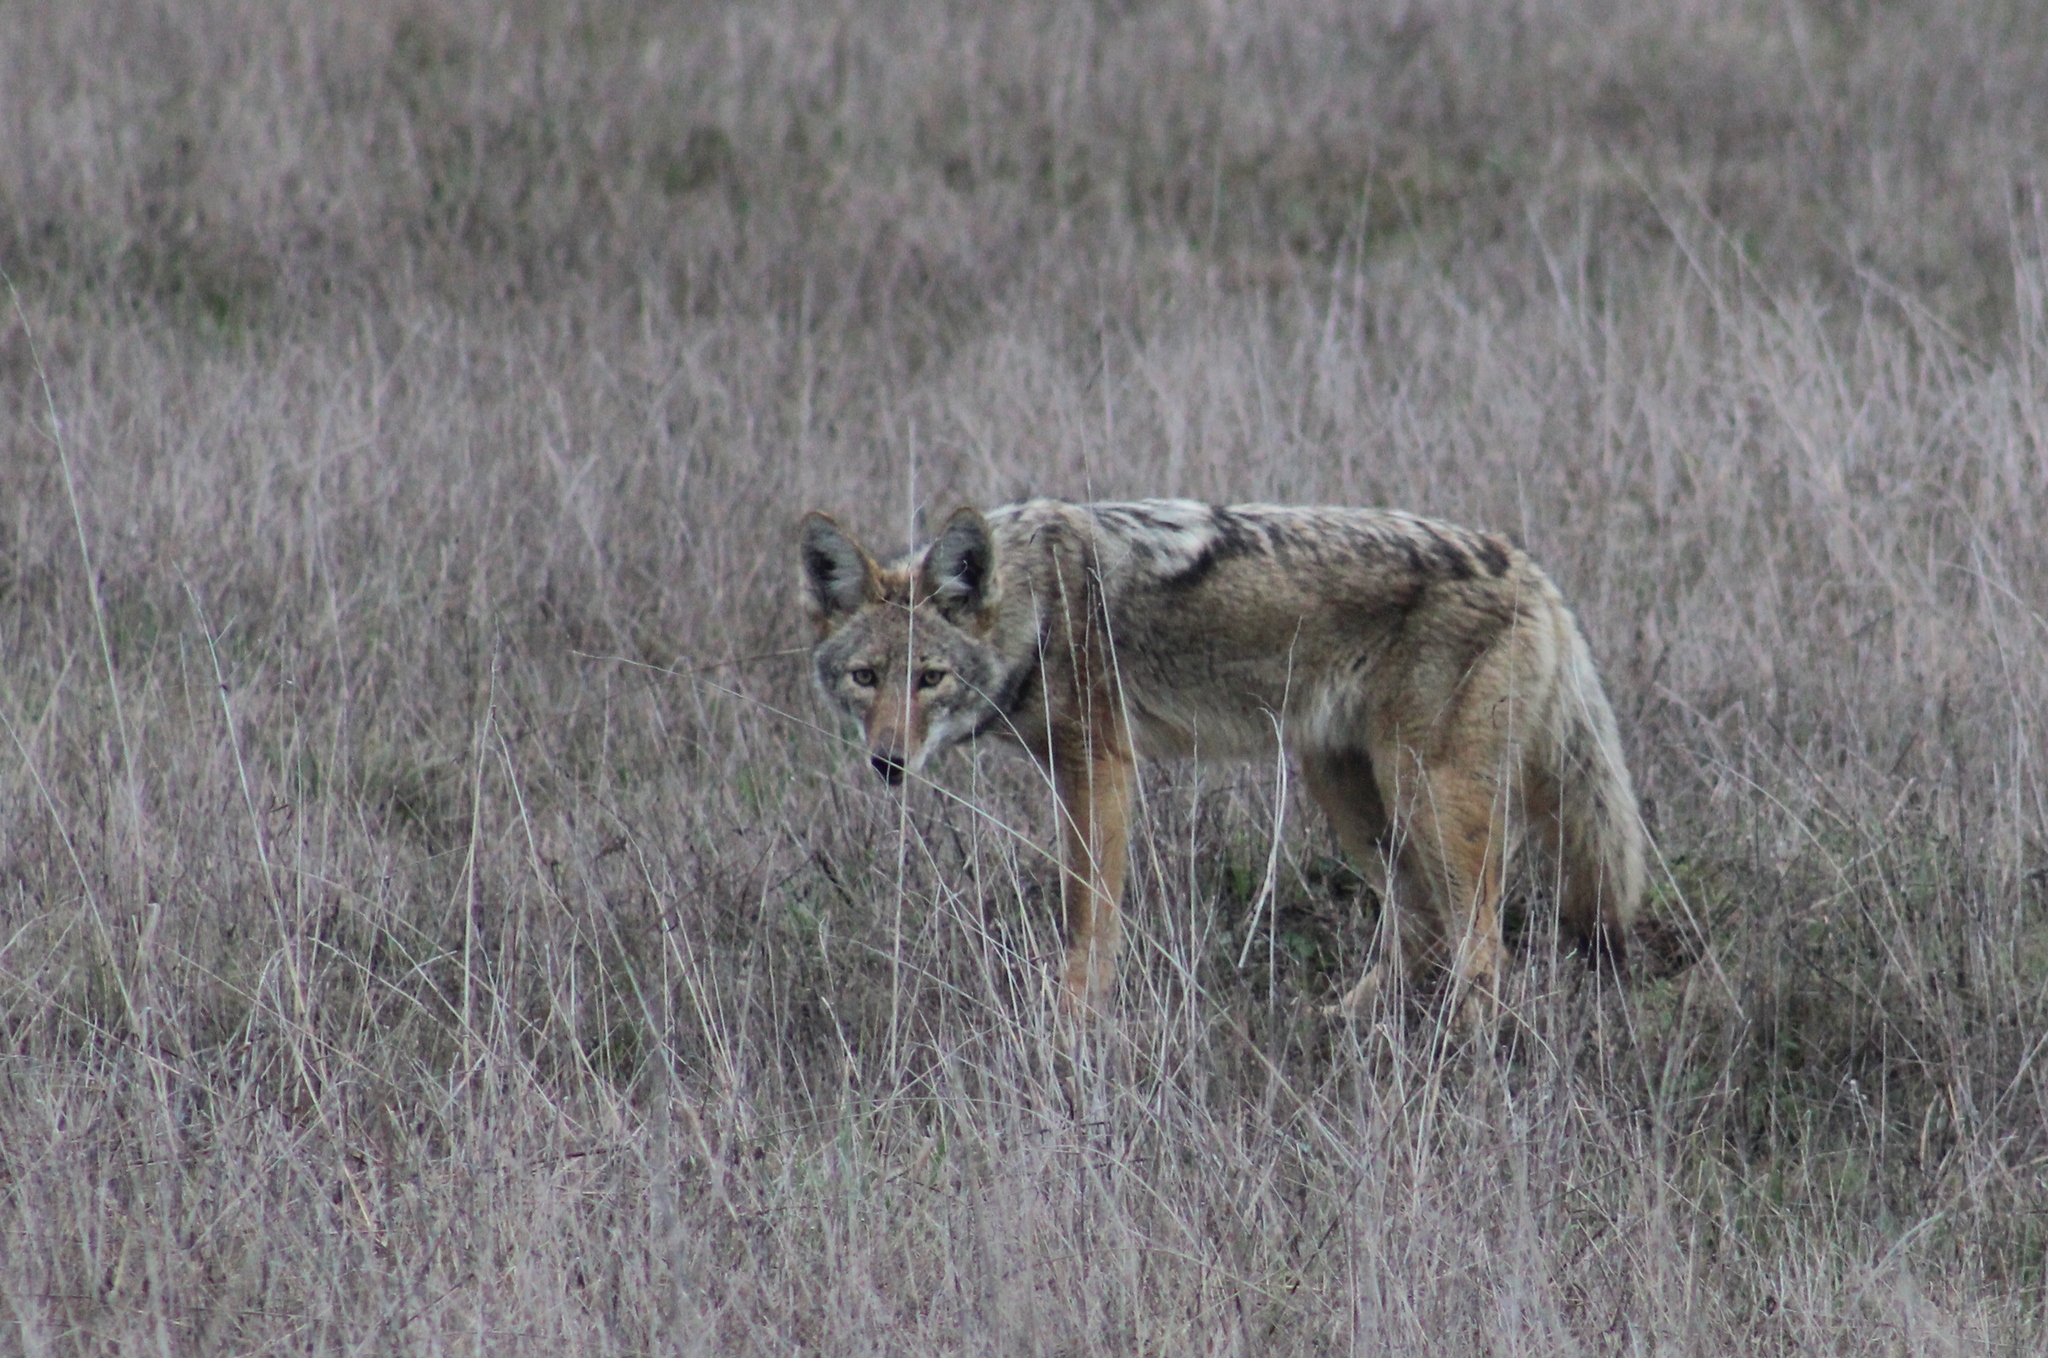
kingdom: Animalia
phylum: Chordata
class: Mammalia
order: Carnivora
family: Canidae
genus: Canis
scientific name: Canis latrans
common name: Coyote
